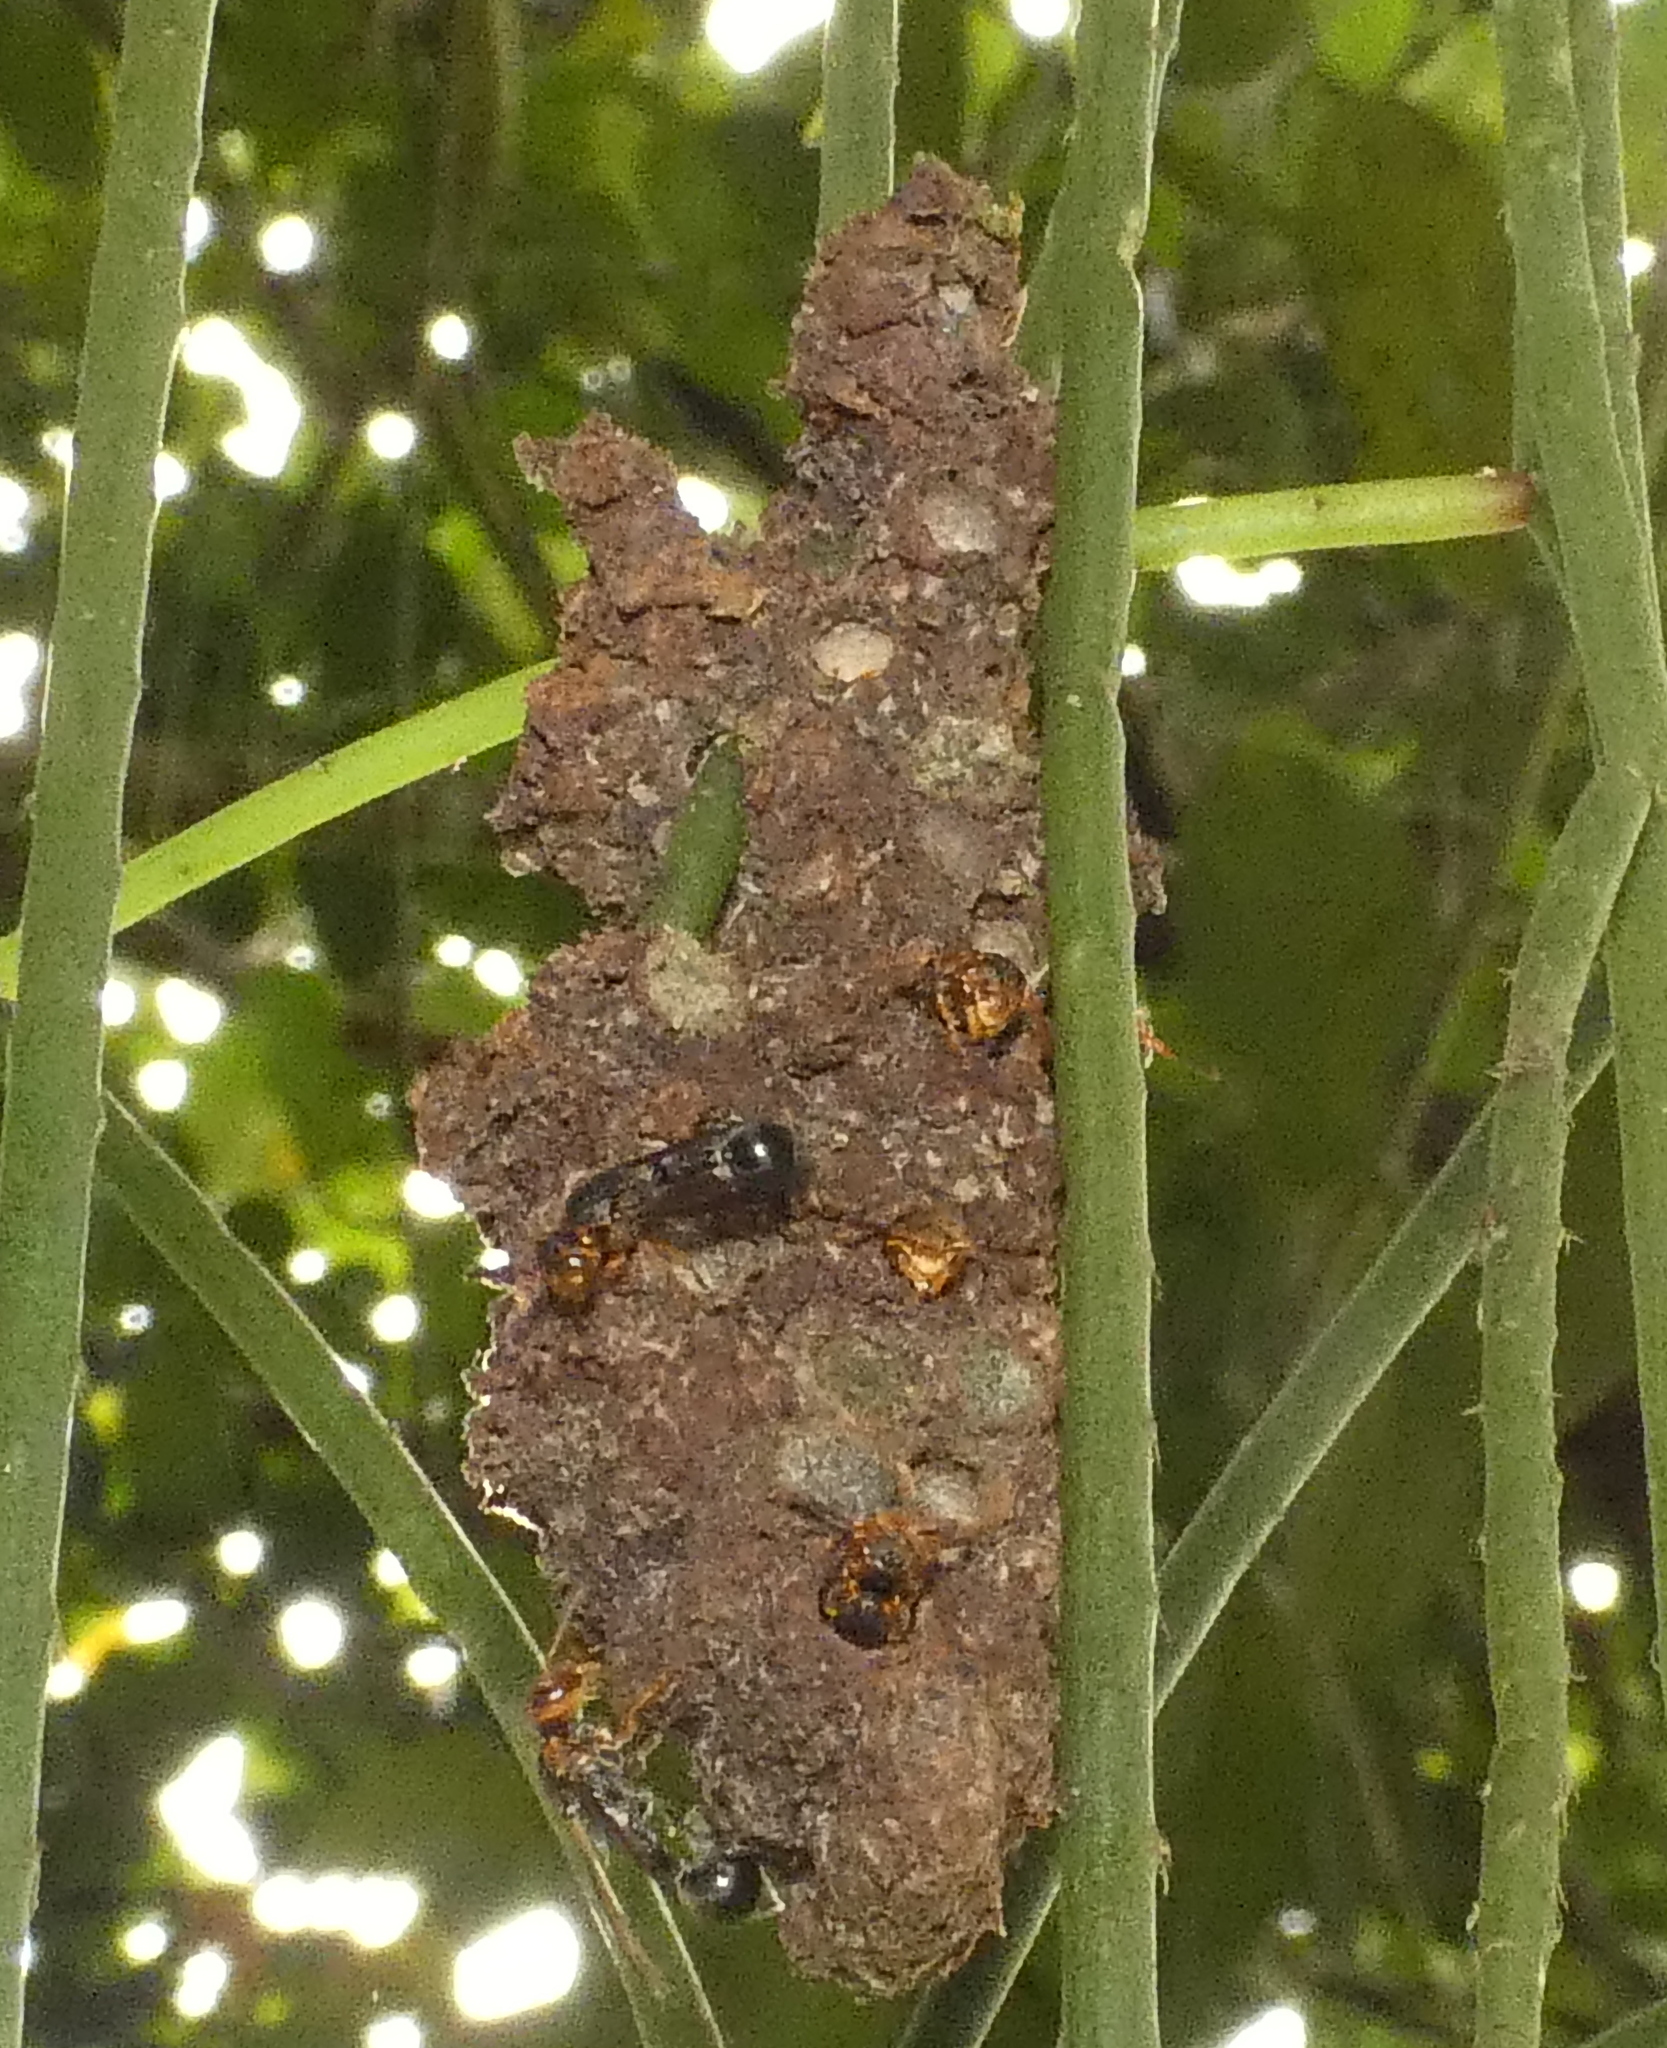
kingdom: Animalia
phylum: Arthropoda
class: Insecta
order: Hymenoptera
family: Eumenidae
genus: Zethus
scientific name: Zethus miniatus
